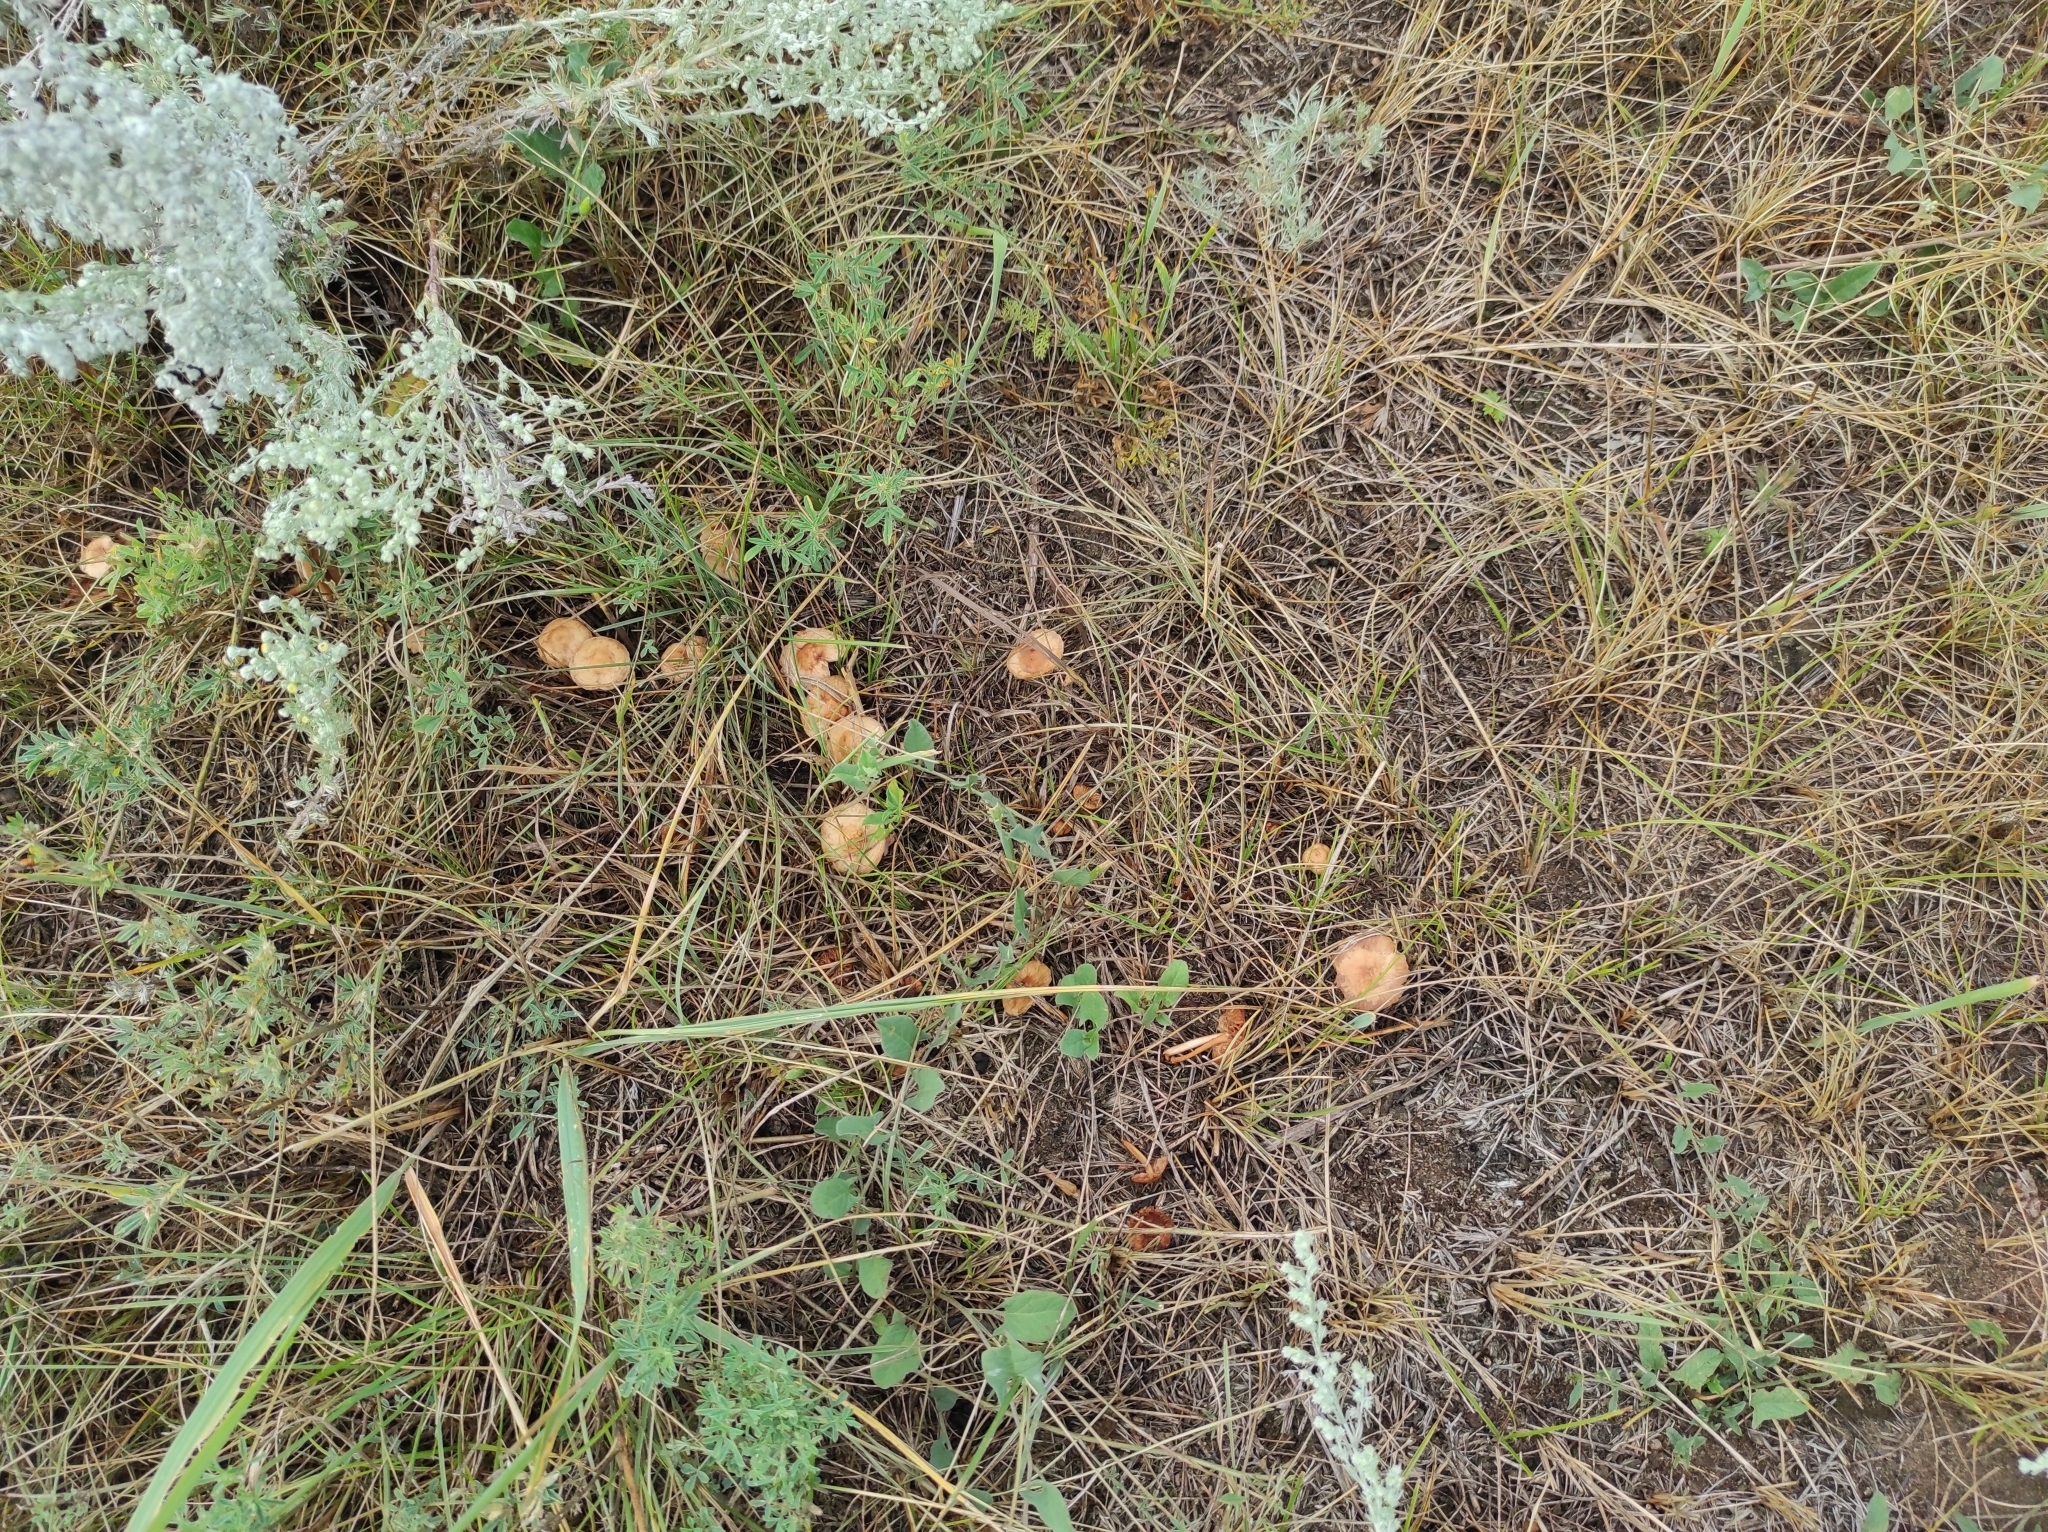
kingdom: Fungi
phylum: Basidiomycota
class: Agaricomycetes
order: Agaricales
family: Marasmiaceae
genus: Marasmius
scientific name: Marasmius oreades
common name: Fairy ring champignon
